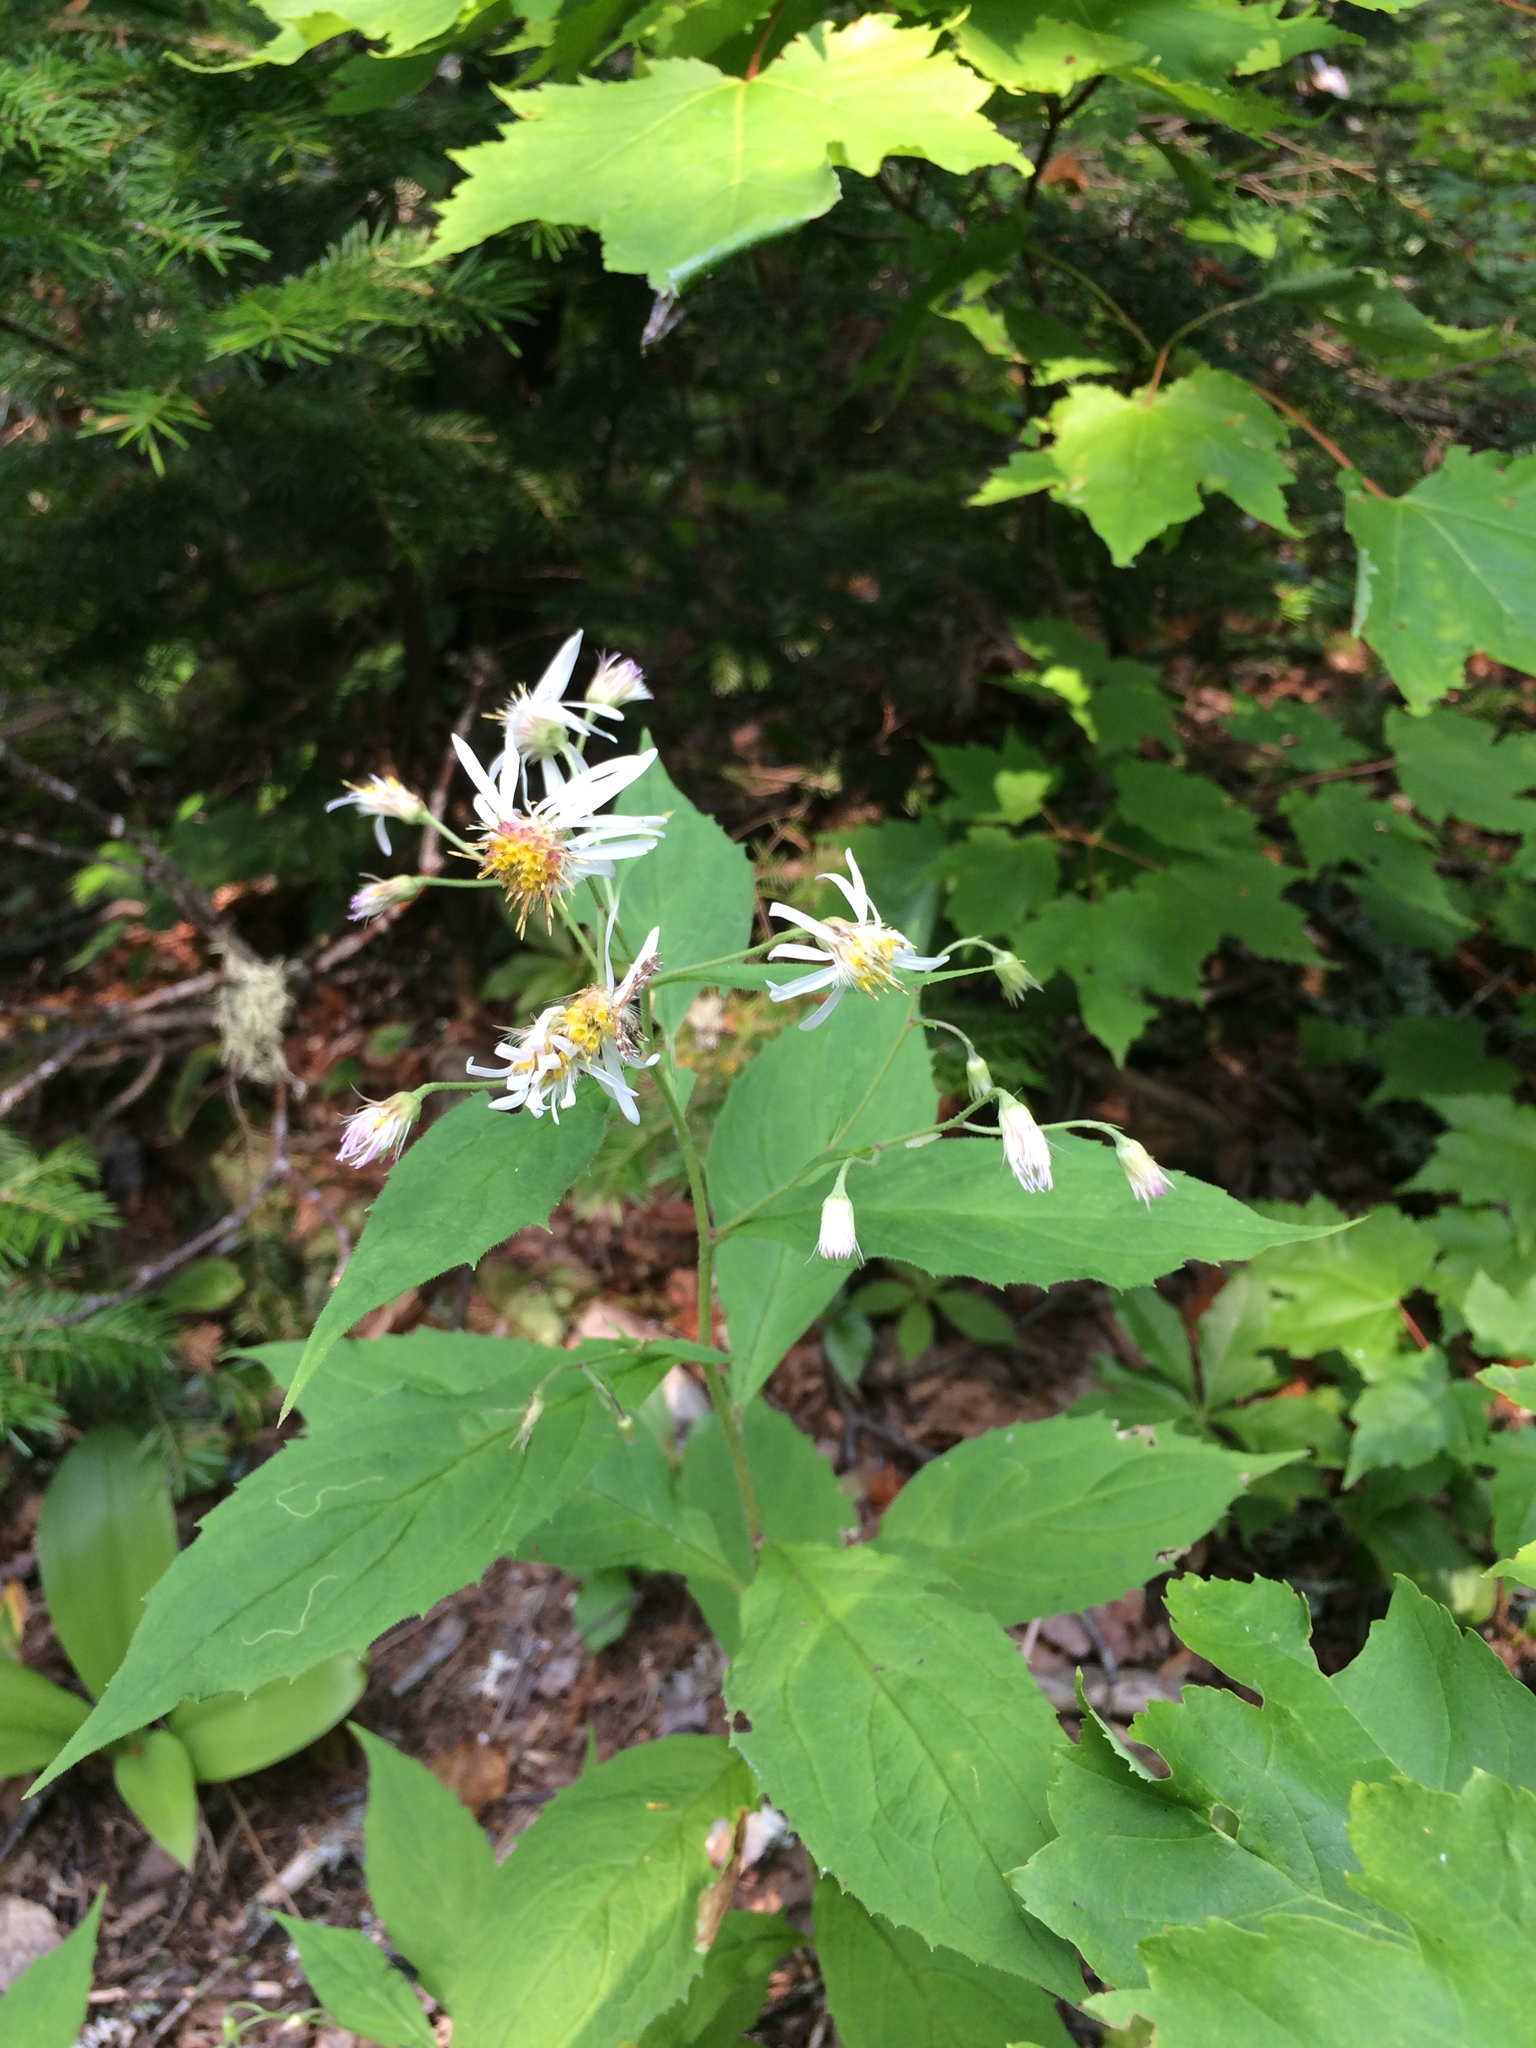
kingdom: Plantae
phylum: Tracheophyta
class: Magnoliopsida
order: Asterales
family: Asteraceae
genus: Oclemena
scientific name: Oclemena acuminata
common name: Mountain aster
